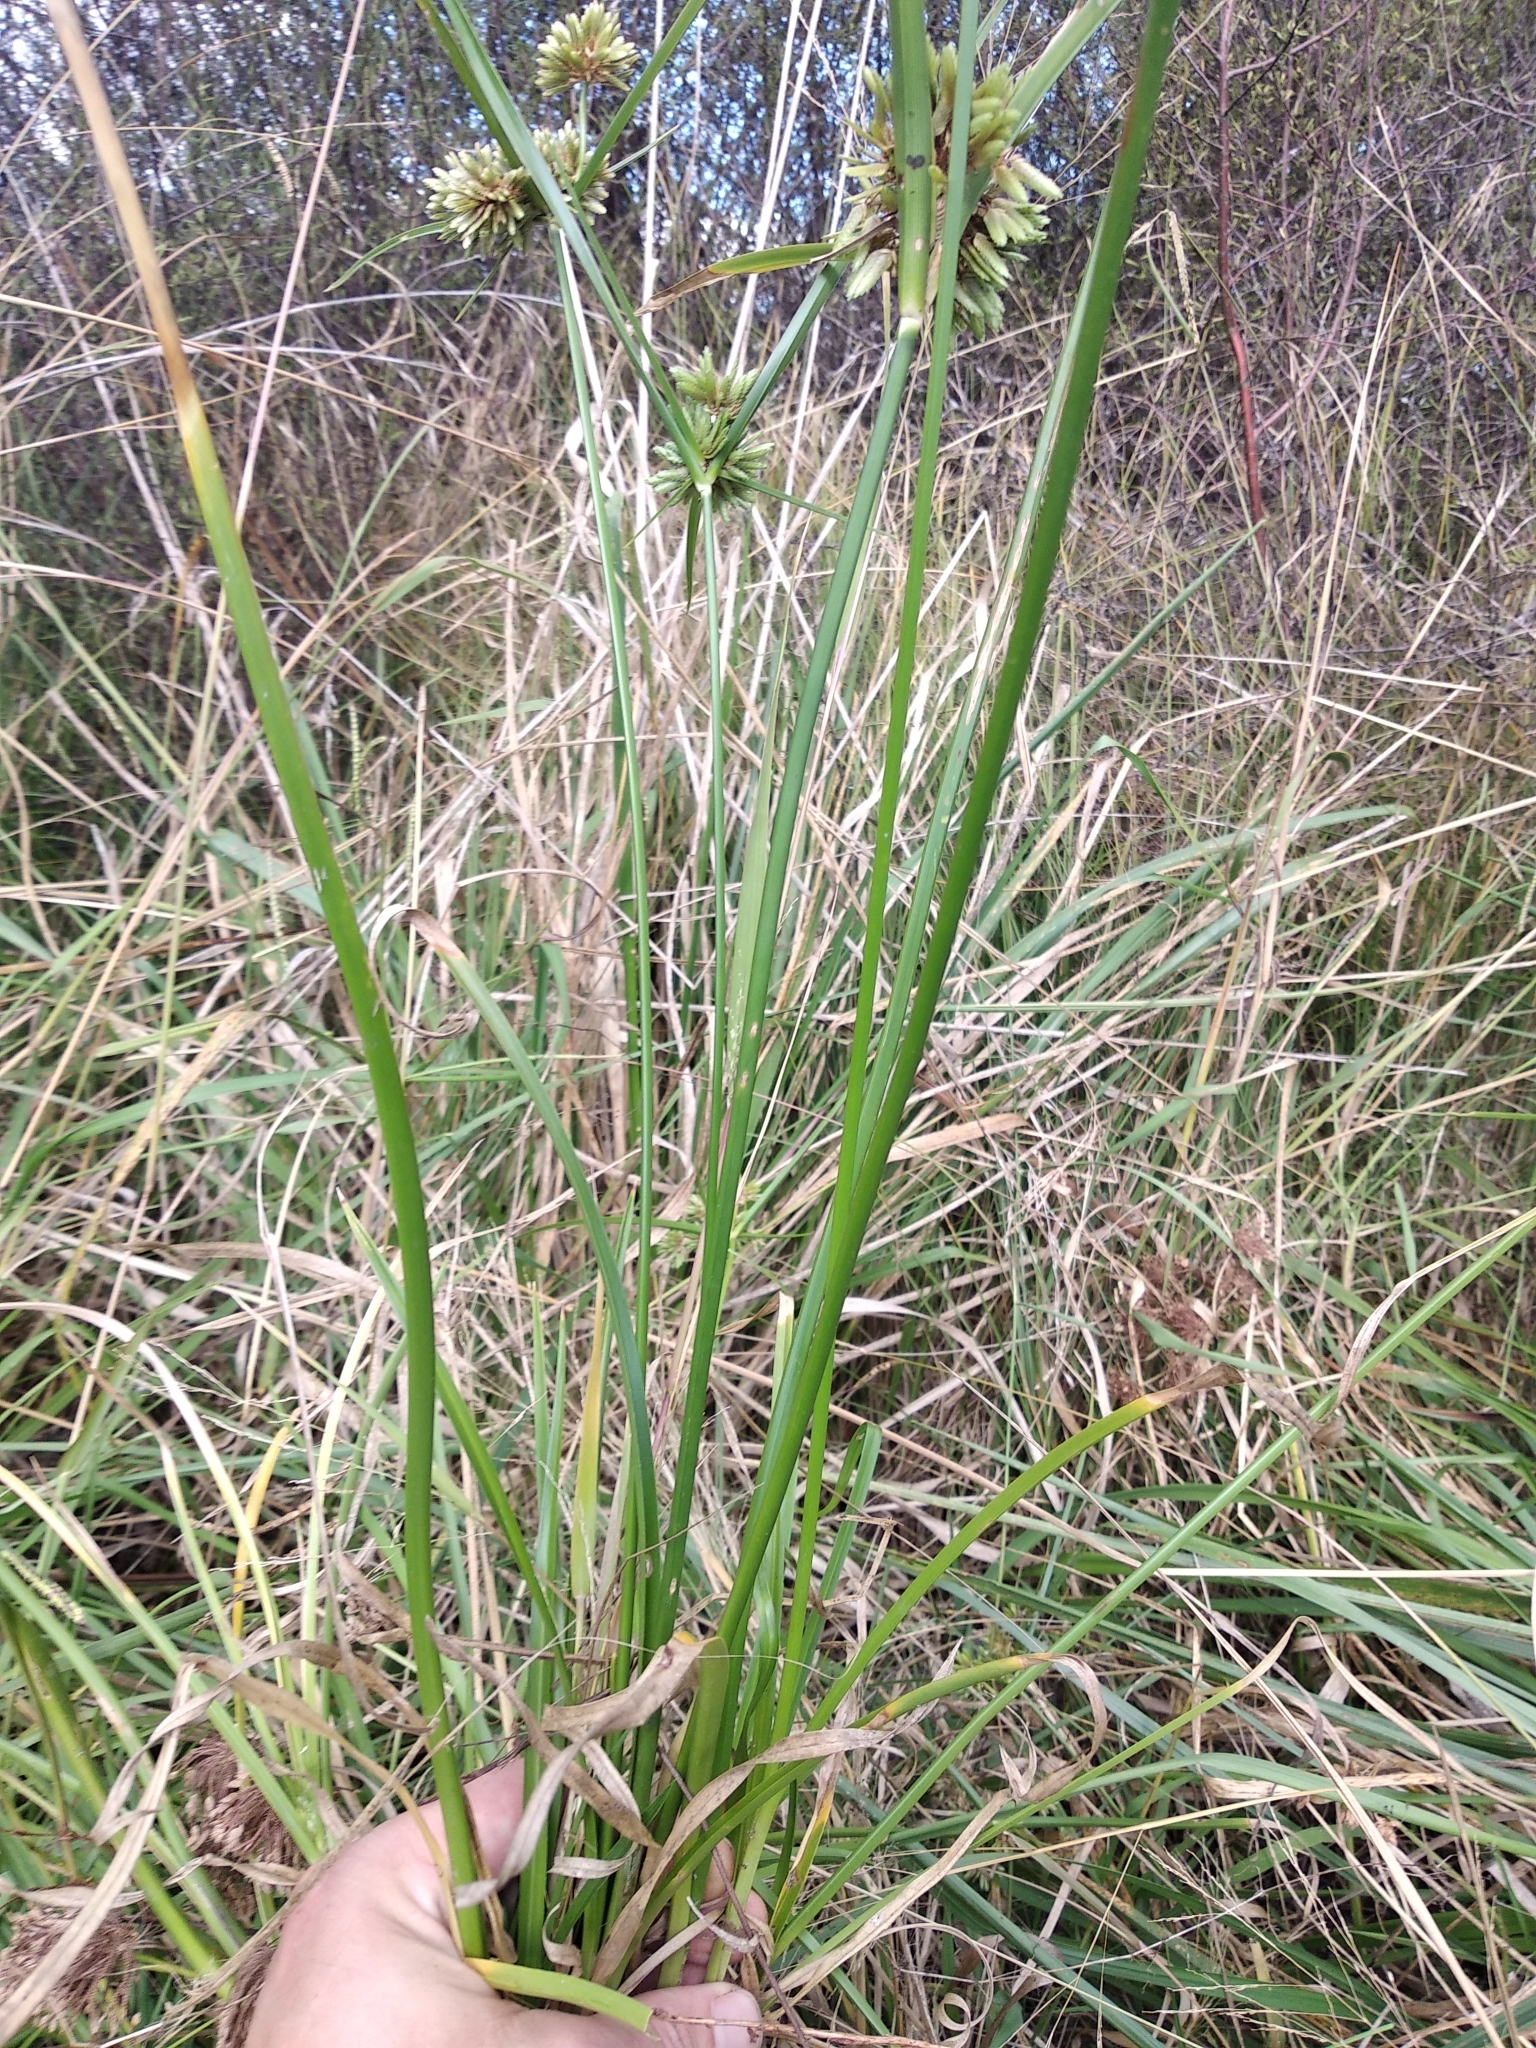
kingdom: Plantae
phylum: Tracheophyta
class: Liliopsida
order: Poales
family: Cyperaceae
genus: Cyperus
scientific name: Cyperus eragrostis
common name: Tall flatsedge
